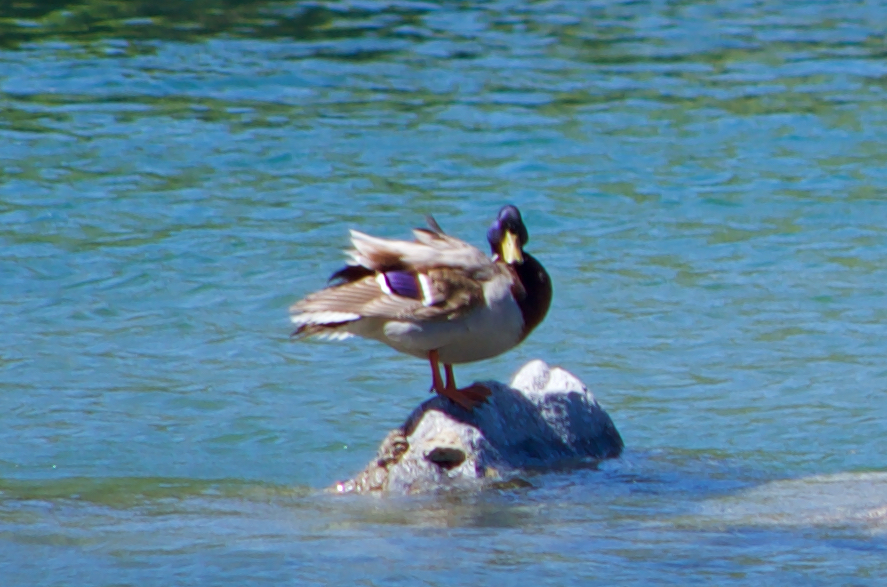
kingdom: Animalia
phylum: Chordata
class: Aves
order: Anseriformes
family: Anatidae
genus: Anas
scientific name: Anas platyrhynchos
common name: Mallard
